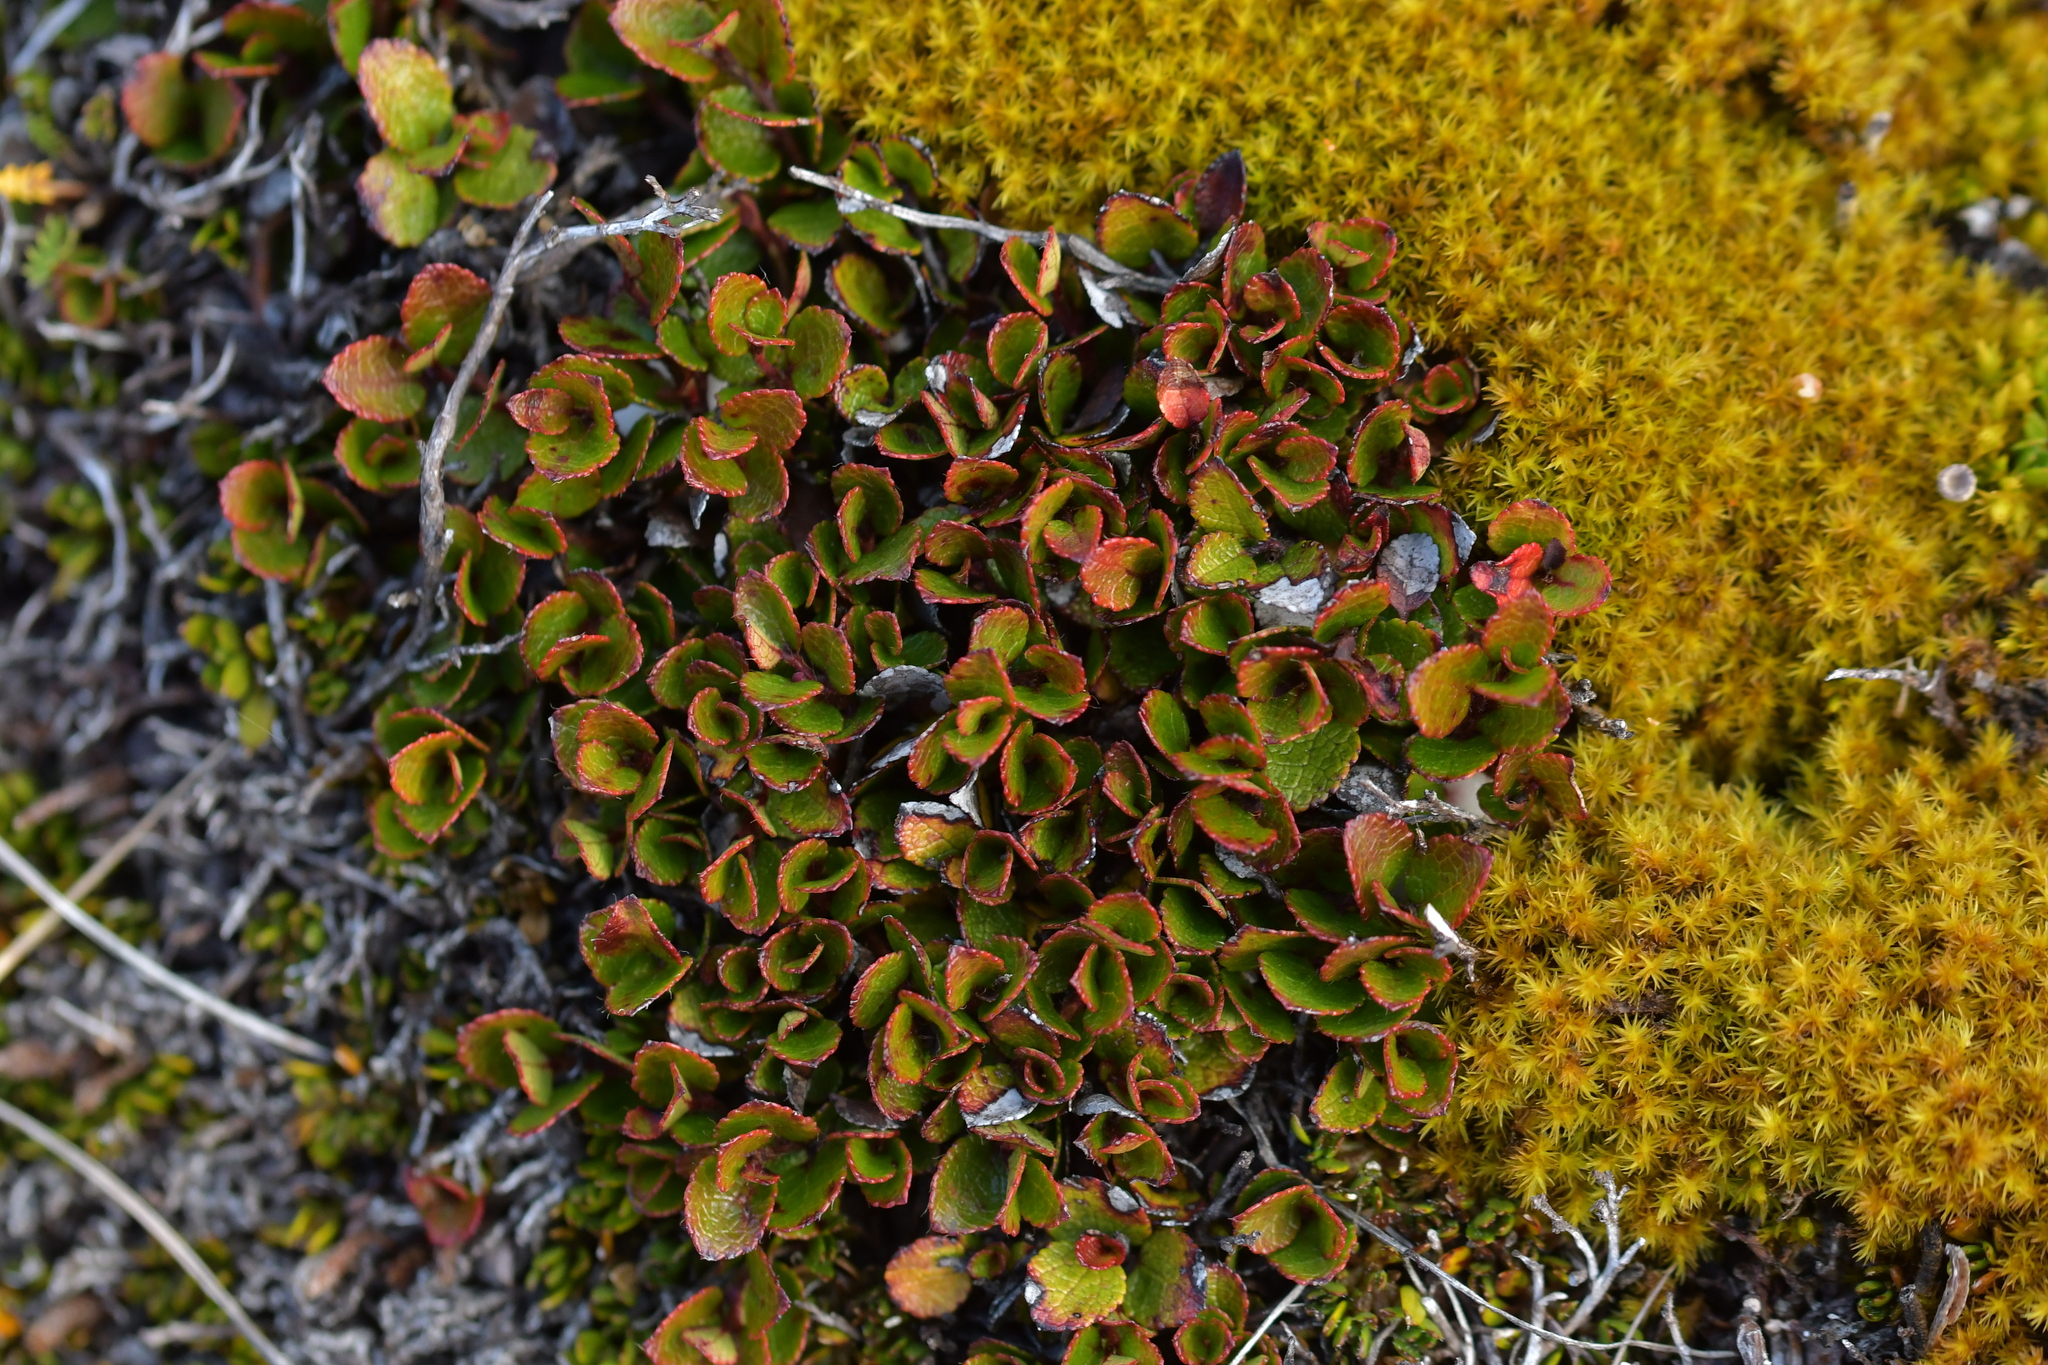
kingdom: Plantae
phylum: Tracheophyta
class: Magnoliopsida
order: Ericales
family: Ericaceae
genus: Gaultheria
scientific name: Gaultheria depressa
